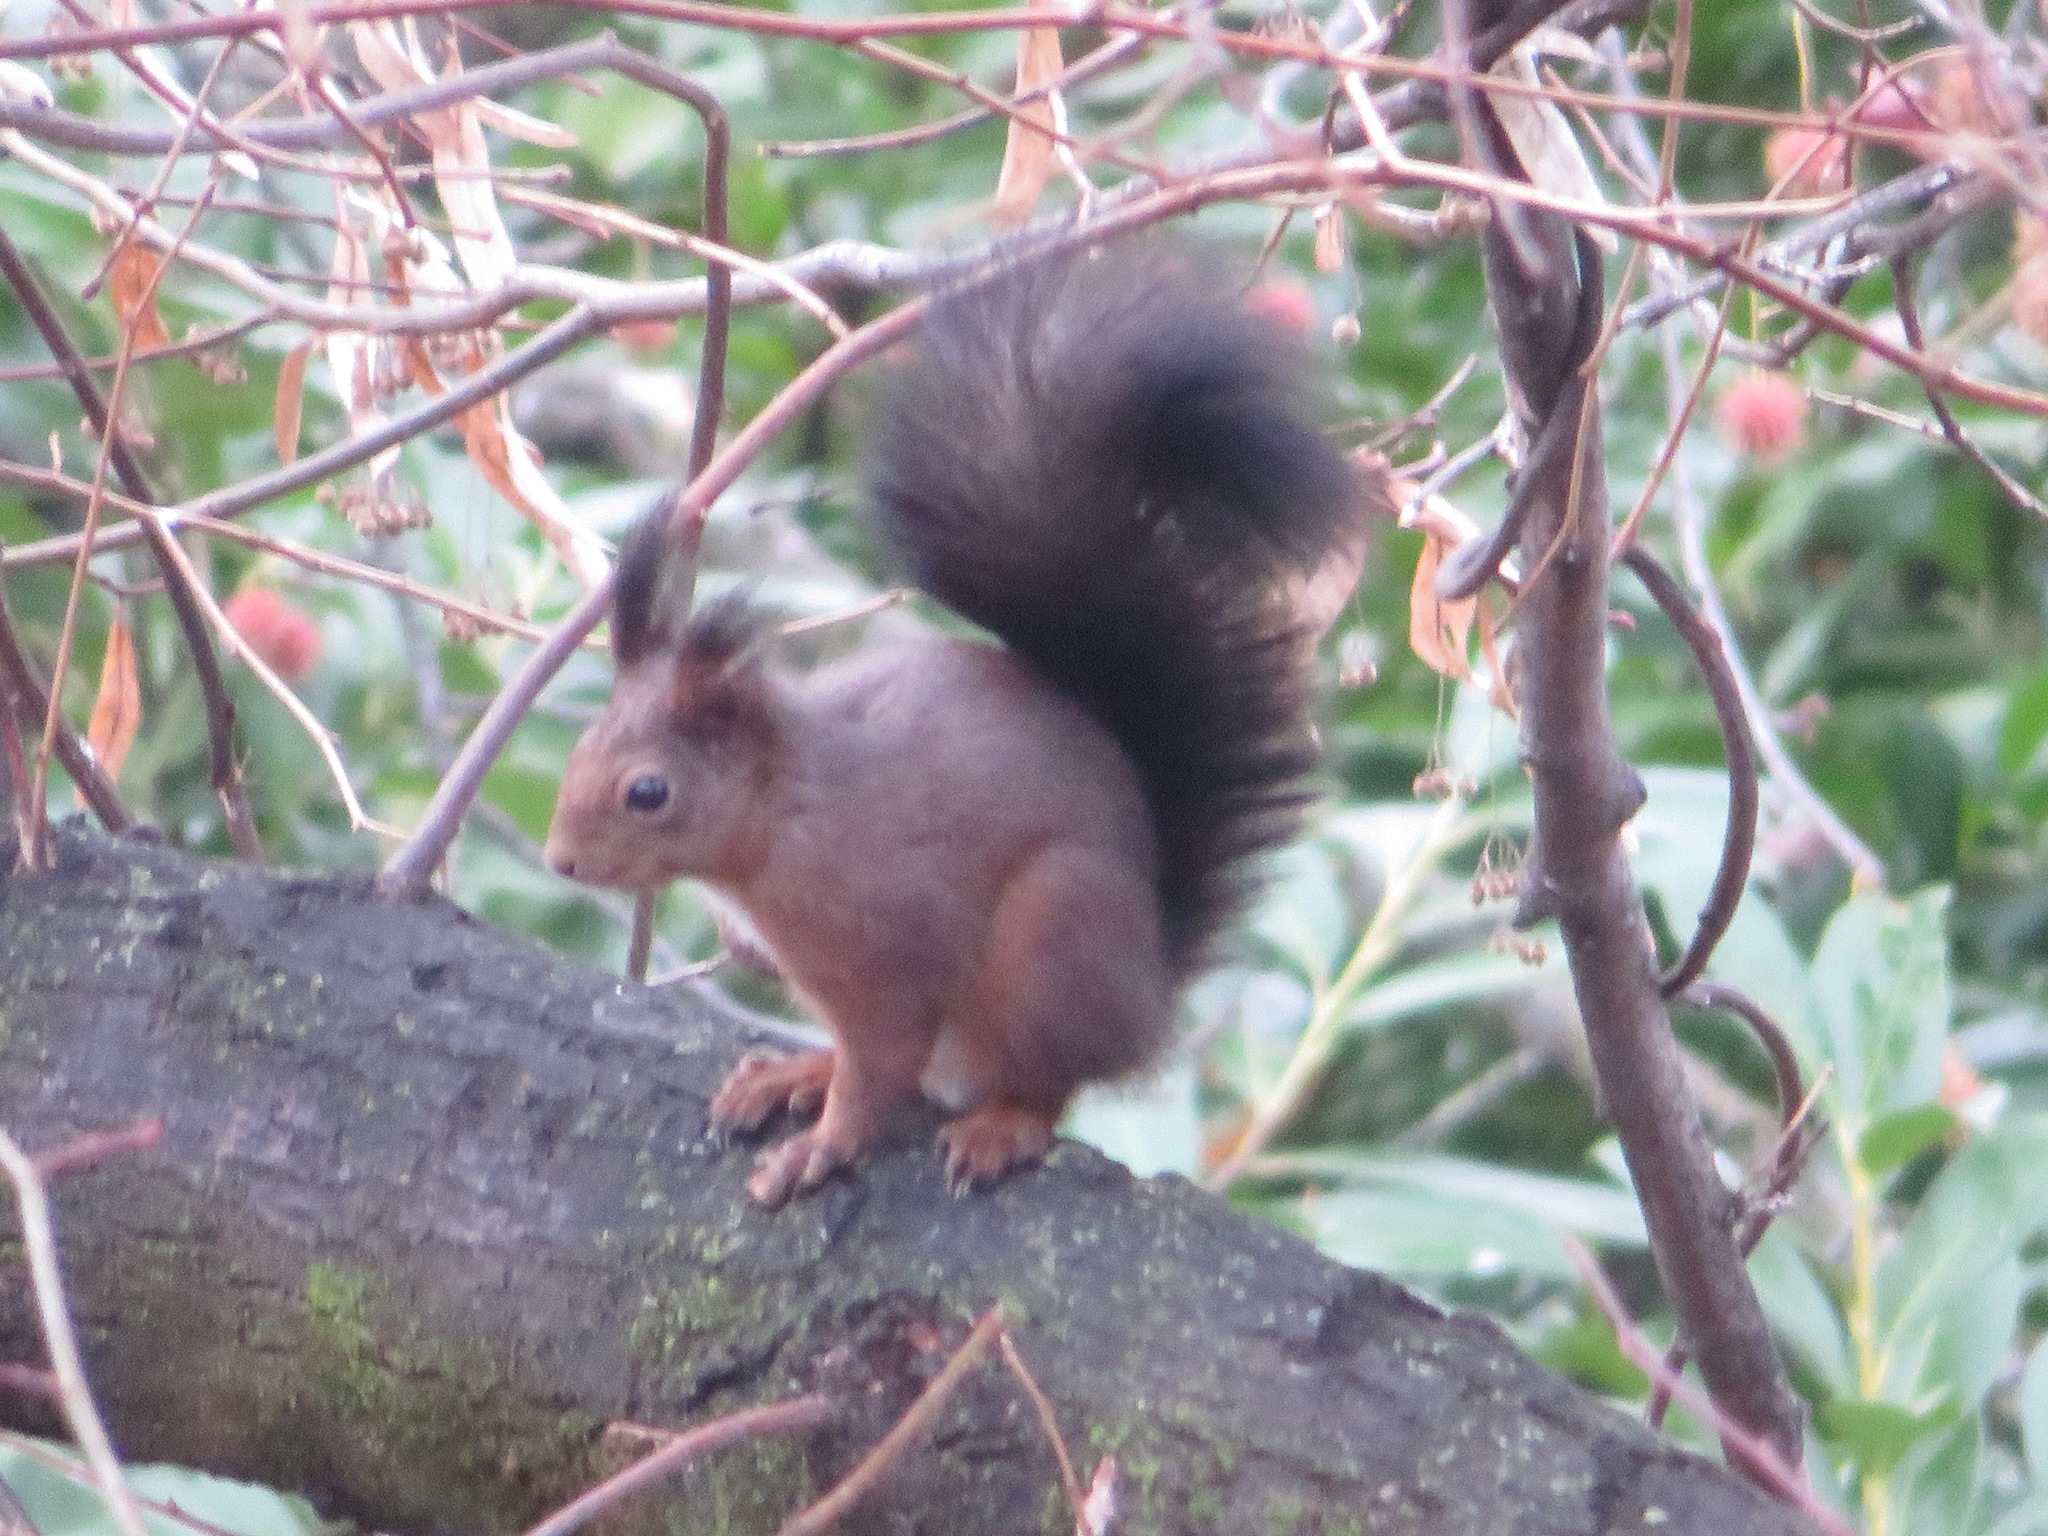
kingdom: Animalia
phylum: Chordata
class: Mammalia
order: Rodentia
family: Sciuridae
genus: Sciurus
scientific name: Sciurus vulgaris
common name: Eurasian red squirrel
